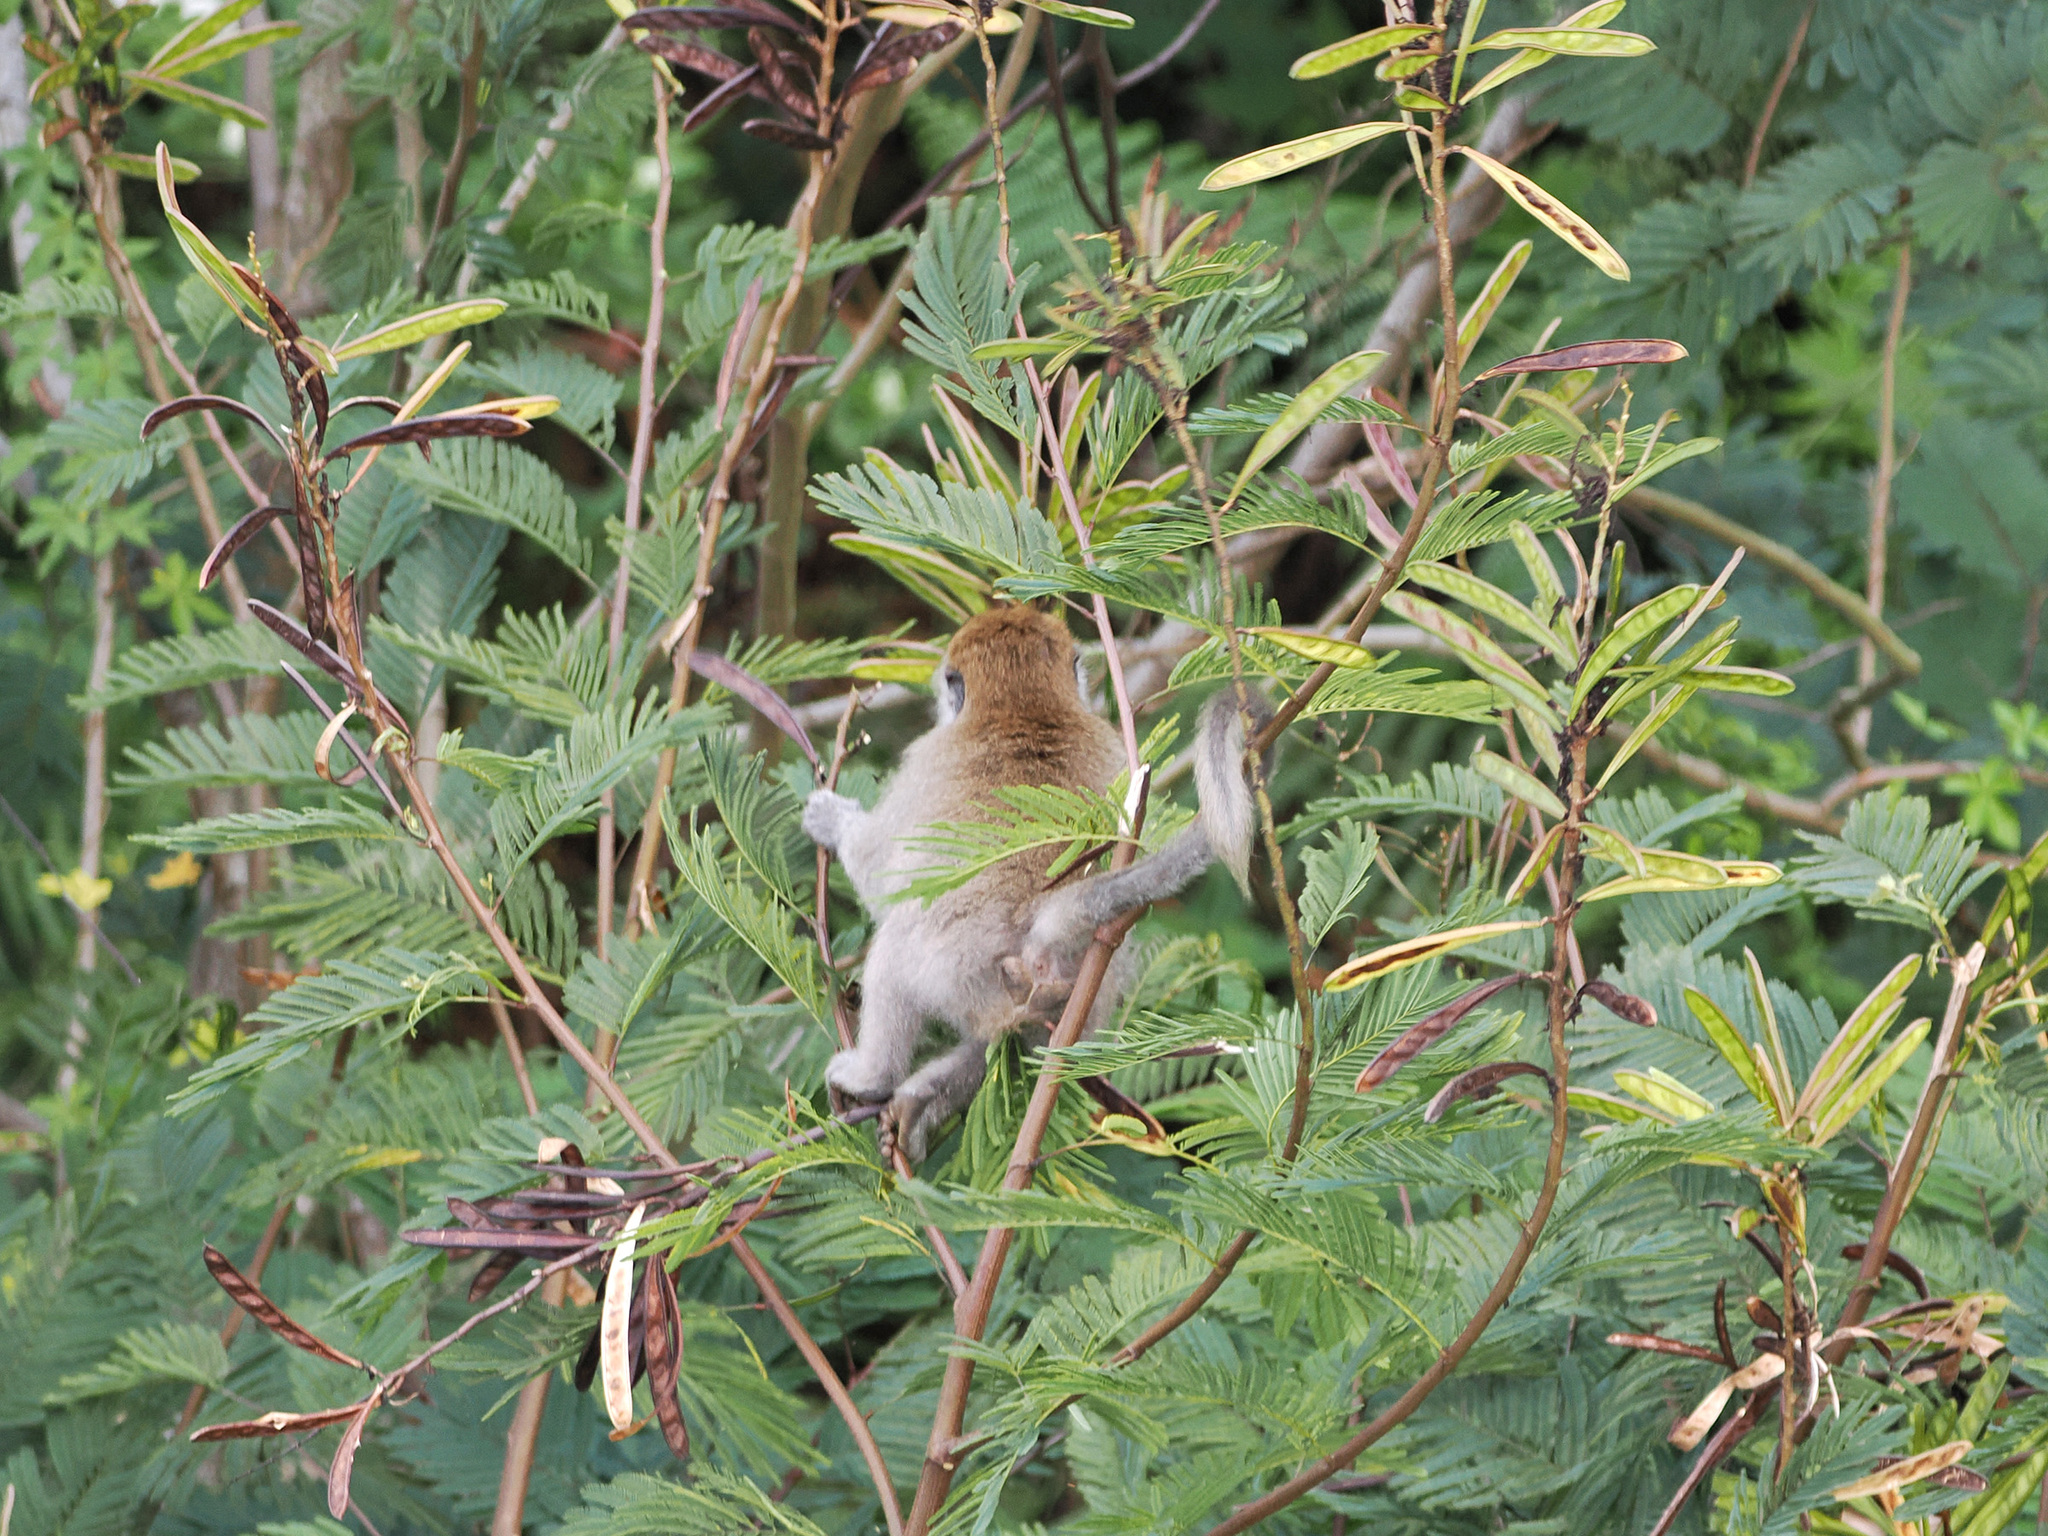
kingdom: Animalia
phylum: Chordata
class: Mammalia
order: Primates
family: Cercopithecidae
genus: Macaca
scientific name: Macaca fascicularis
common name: Crab-eating macaque
